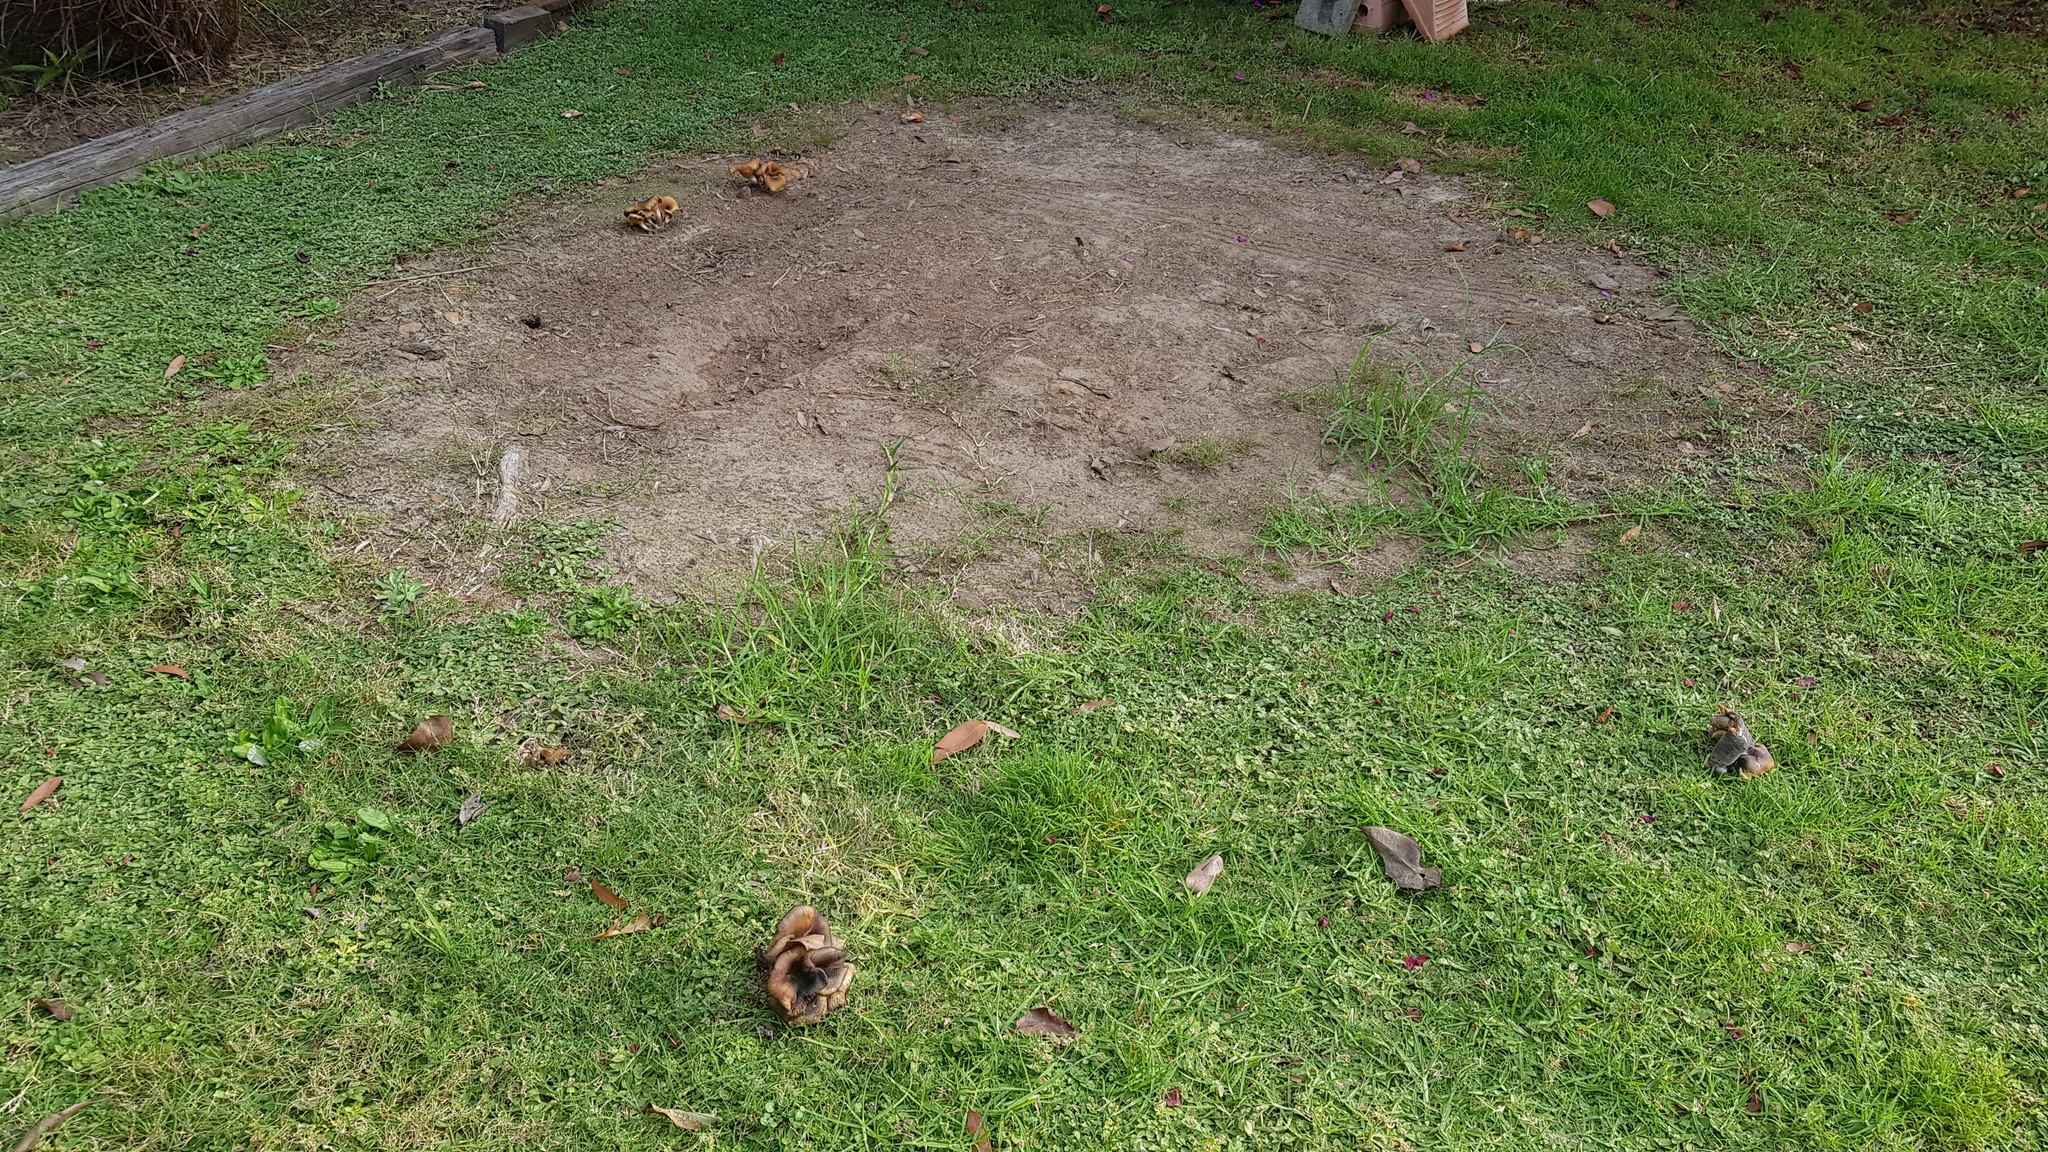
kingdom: Fungi
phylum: Basidiomycota
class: Agaricomycetes
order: Agaricales
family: Omphalotaceae
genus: Omphalotus
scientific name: Omphalotus nidiformis
